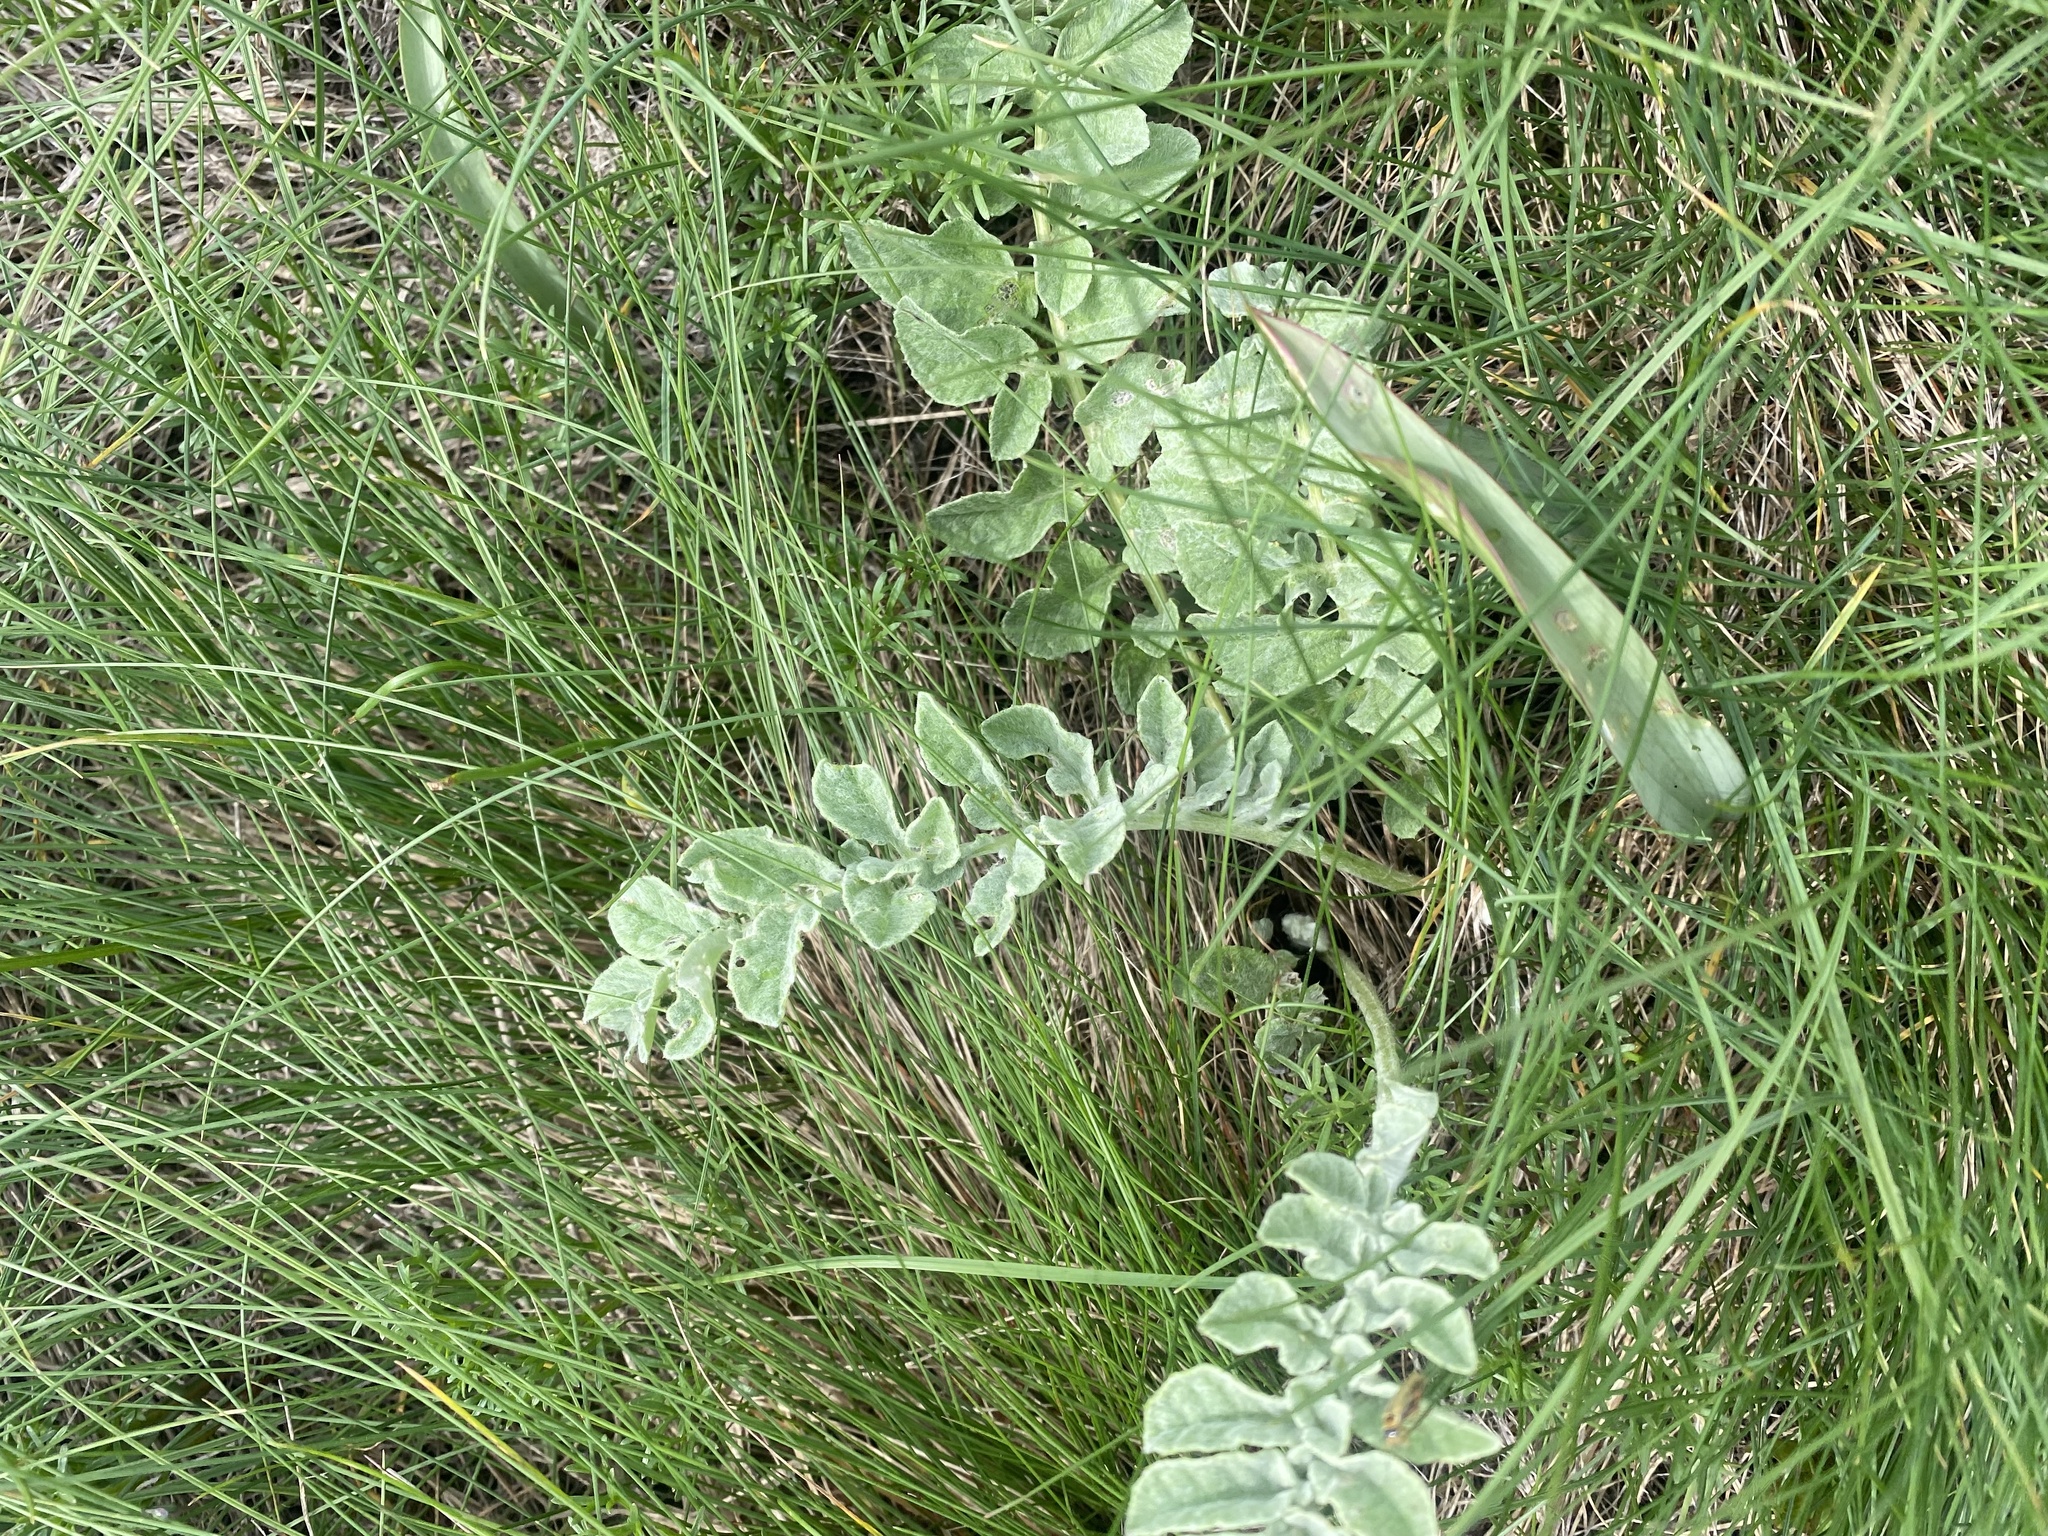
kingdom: Plantae
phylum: Tracheophyta
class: Magnoliopsida
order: Asterales
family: Asteraceae
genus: Psephellus
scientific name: Psephellus declinatus
